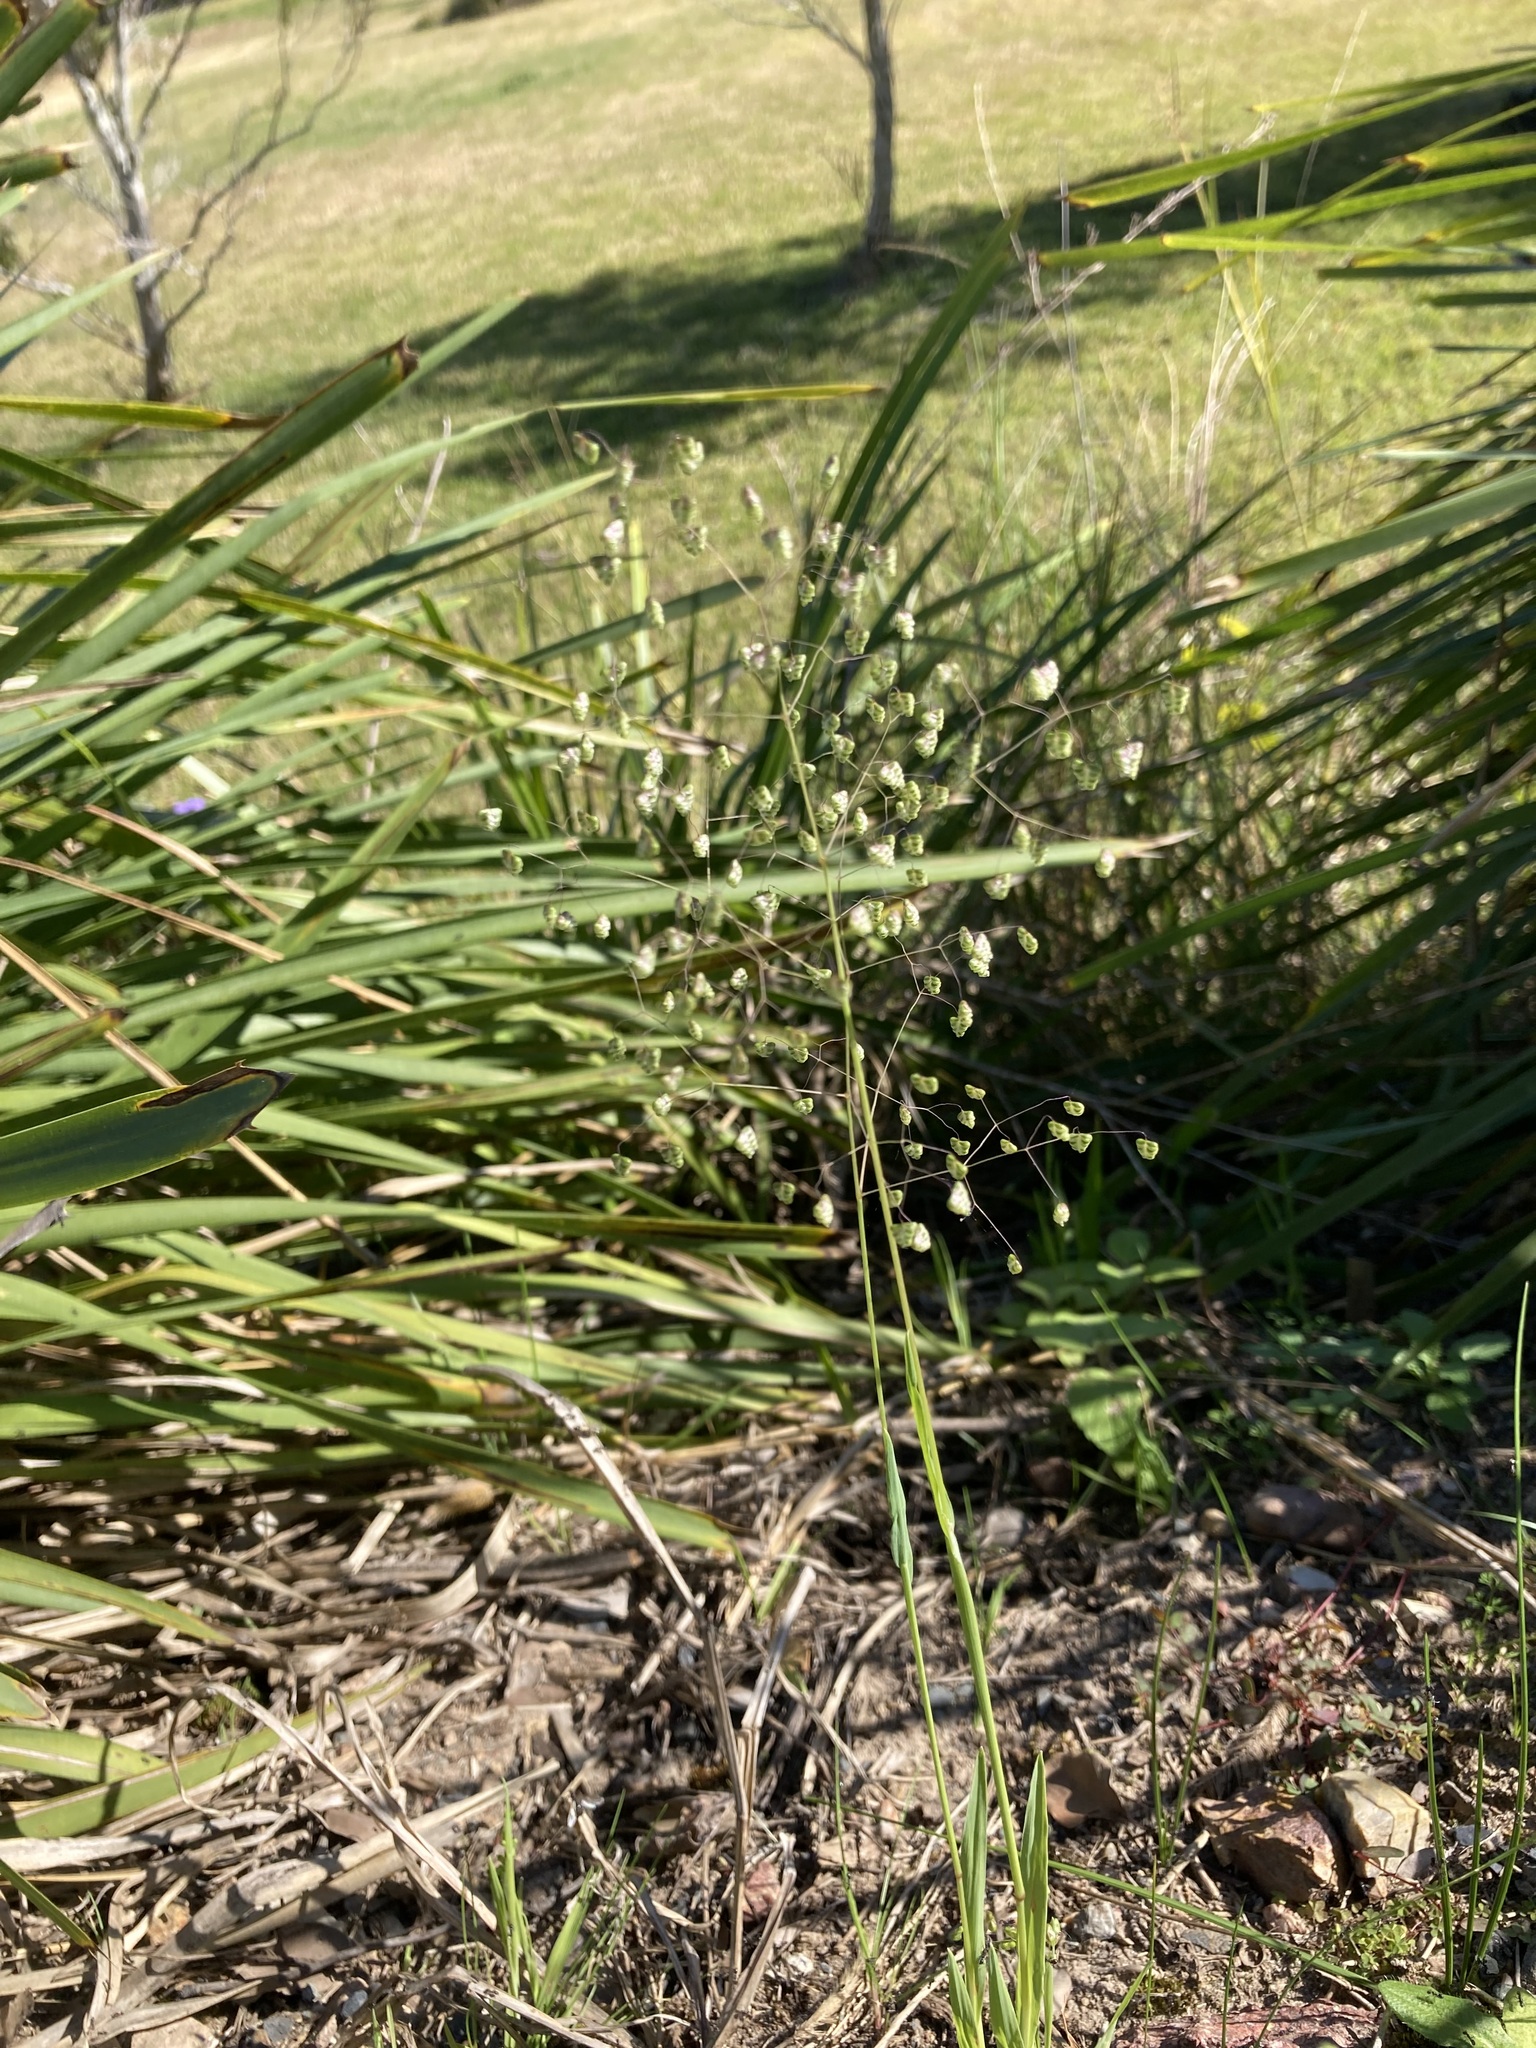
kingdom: Plantae
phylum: Tracheophyta
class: Liliopsida
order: Poales
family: Poaceae
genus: Briza
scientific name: Briza minor
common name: Lesser quaking-grass
